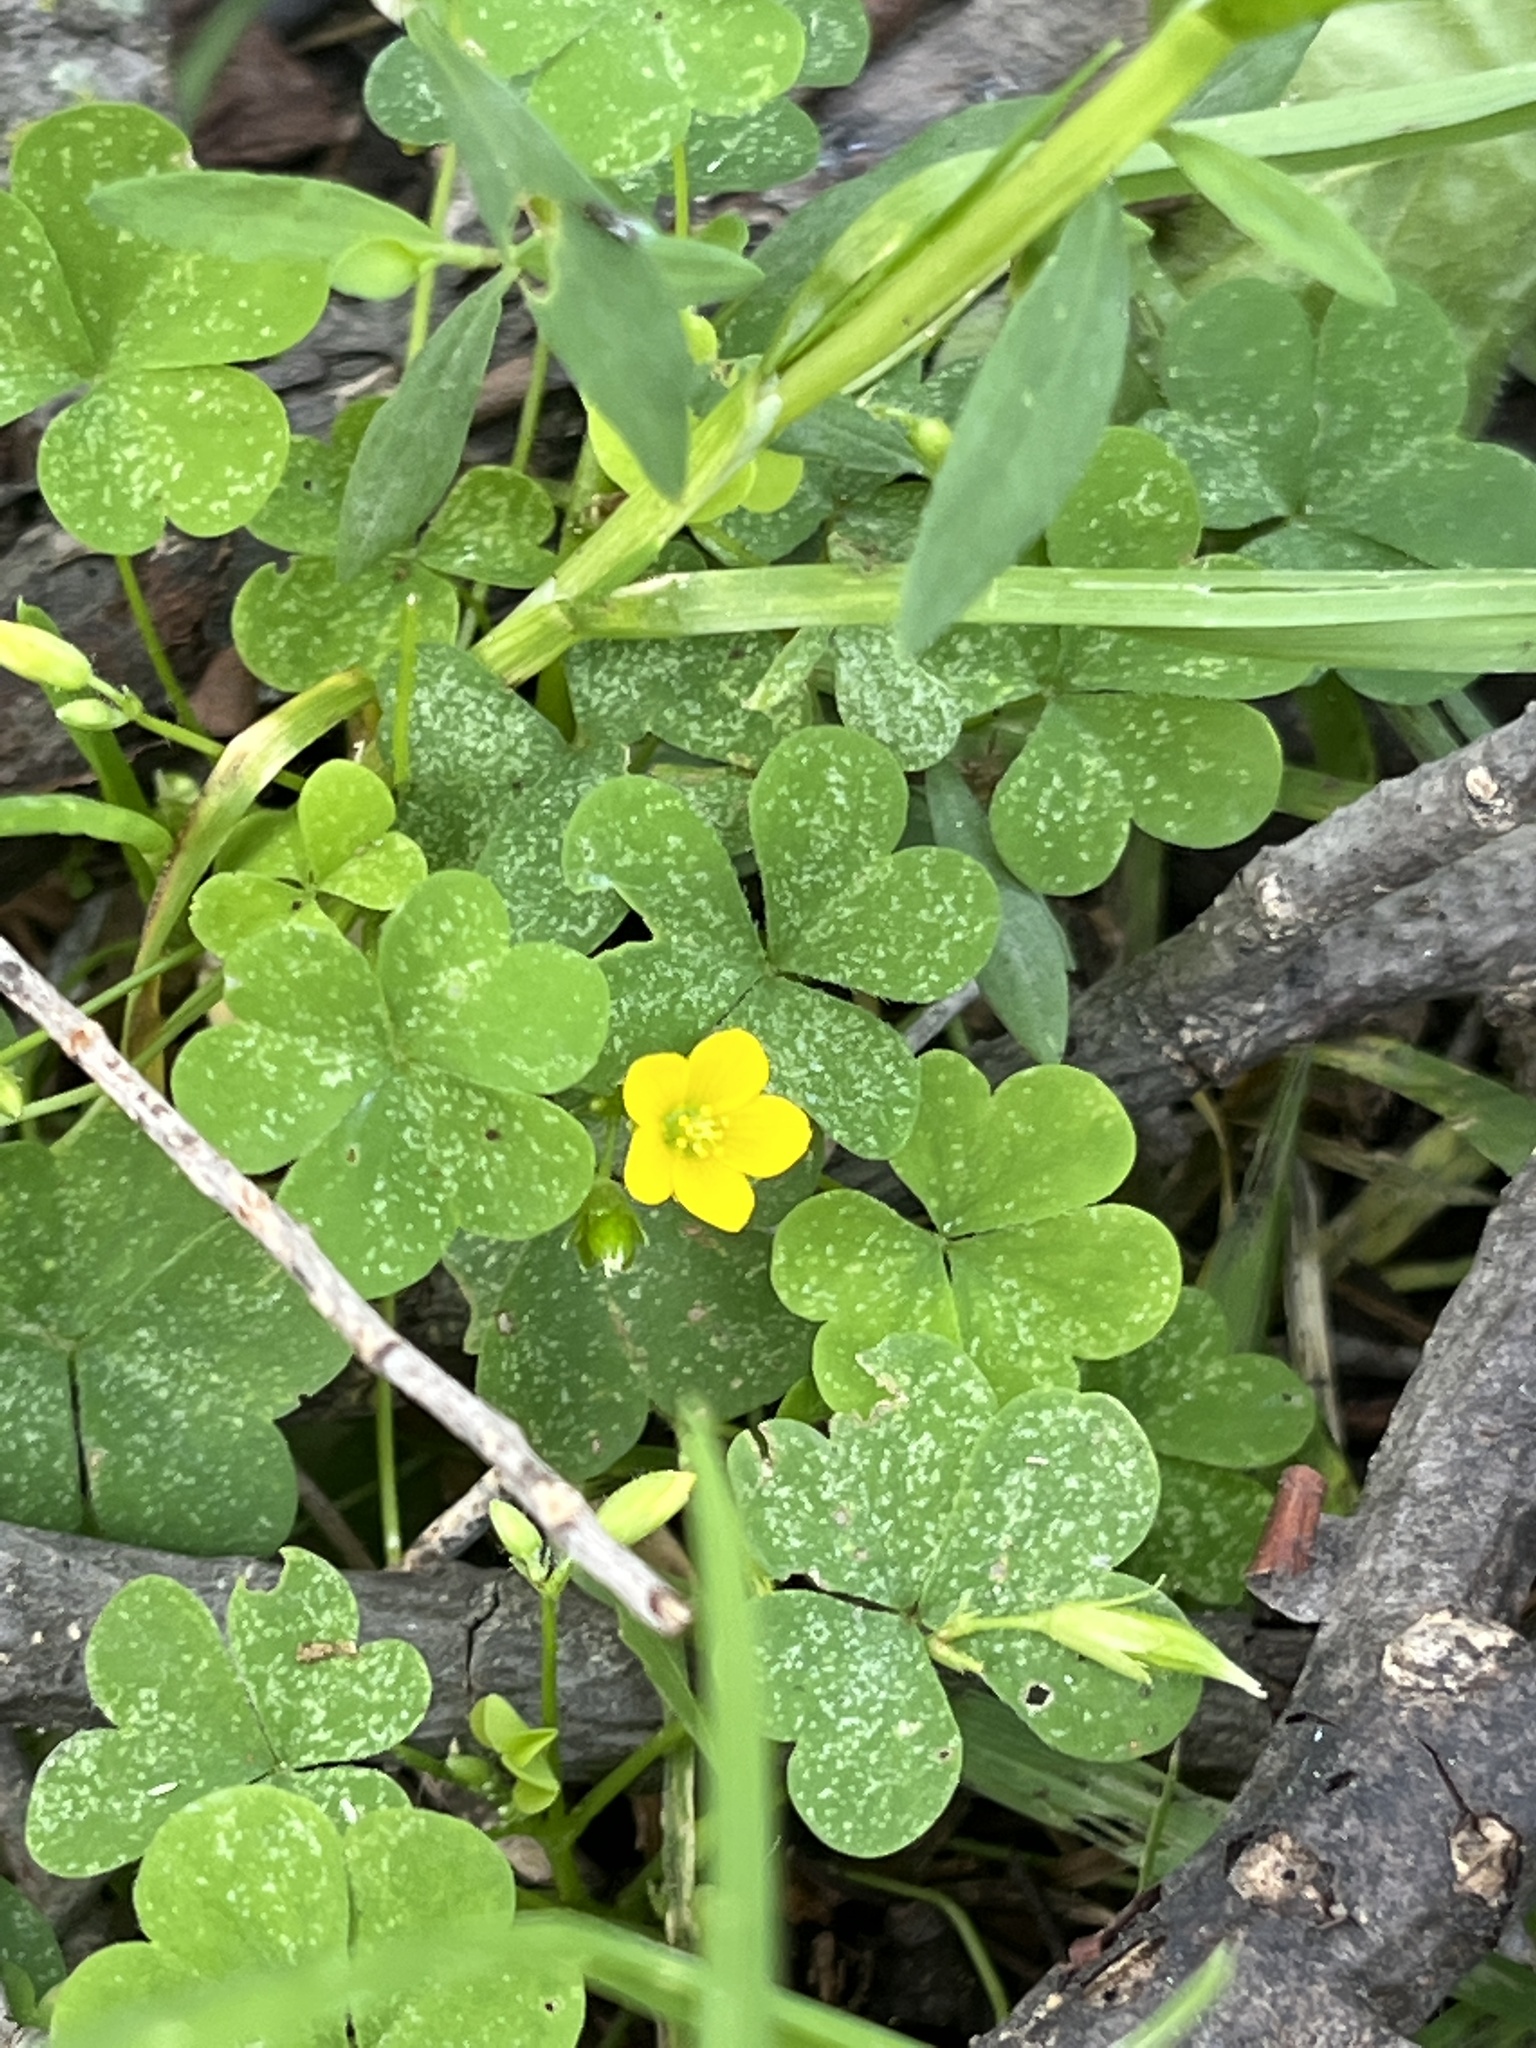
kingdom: Plantae
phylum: Tracheophyta
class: Magnoliopsida
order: Oxalidales
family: Oxalidaceae
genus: Oxalis
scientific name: Oxalis stricta
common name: Upright yellow-sorrel
